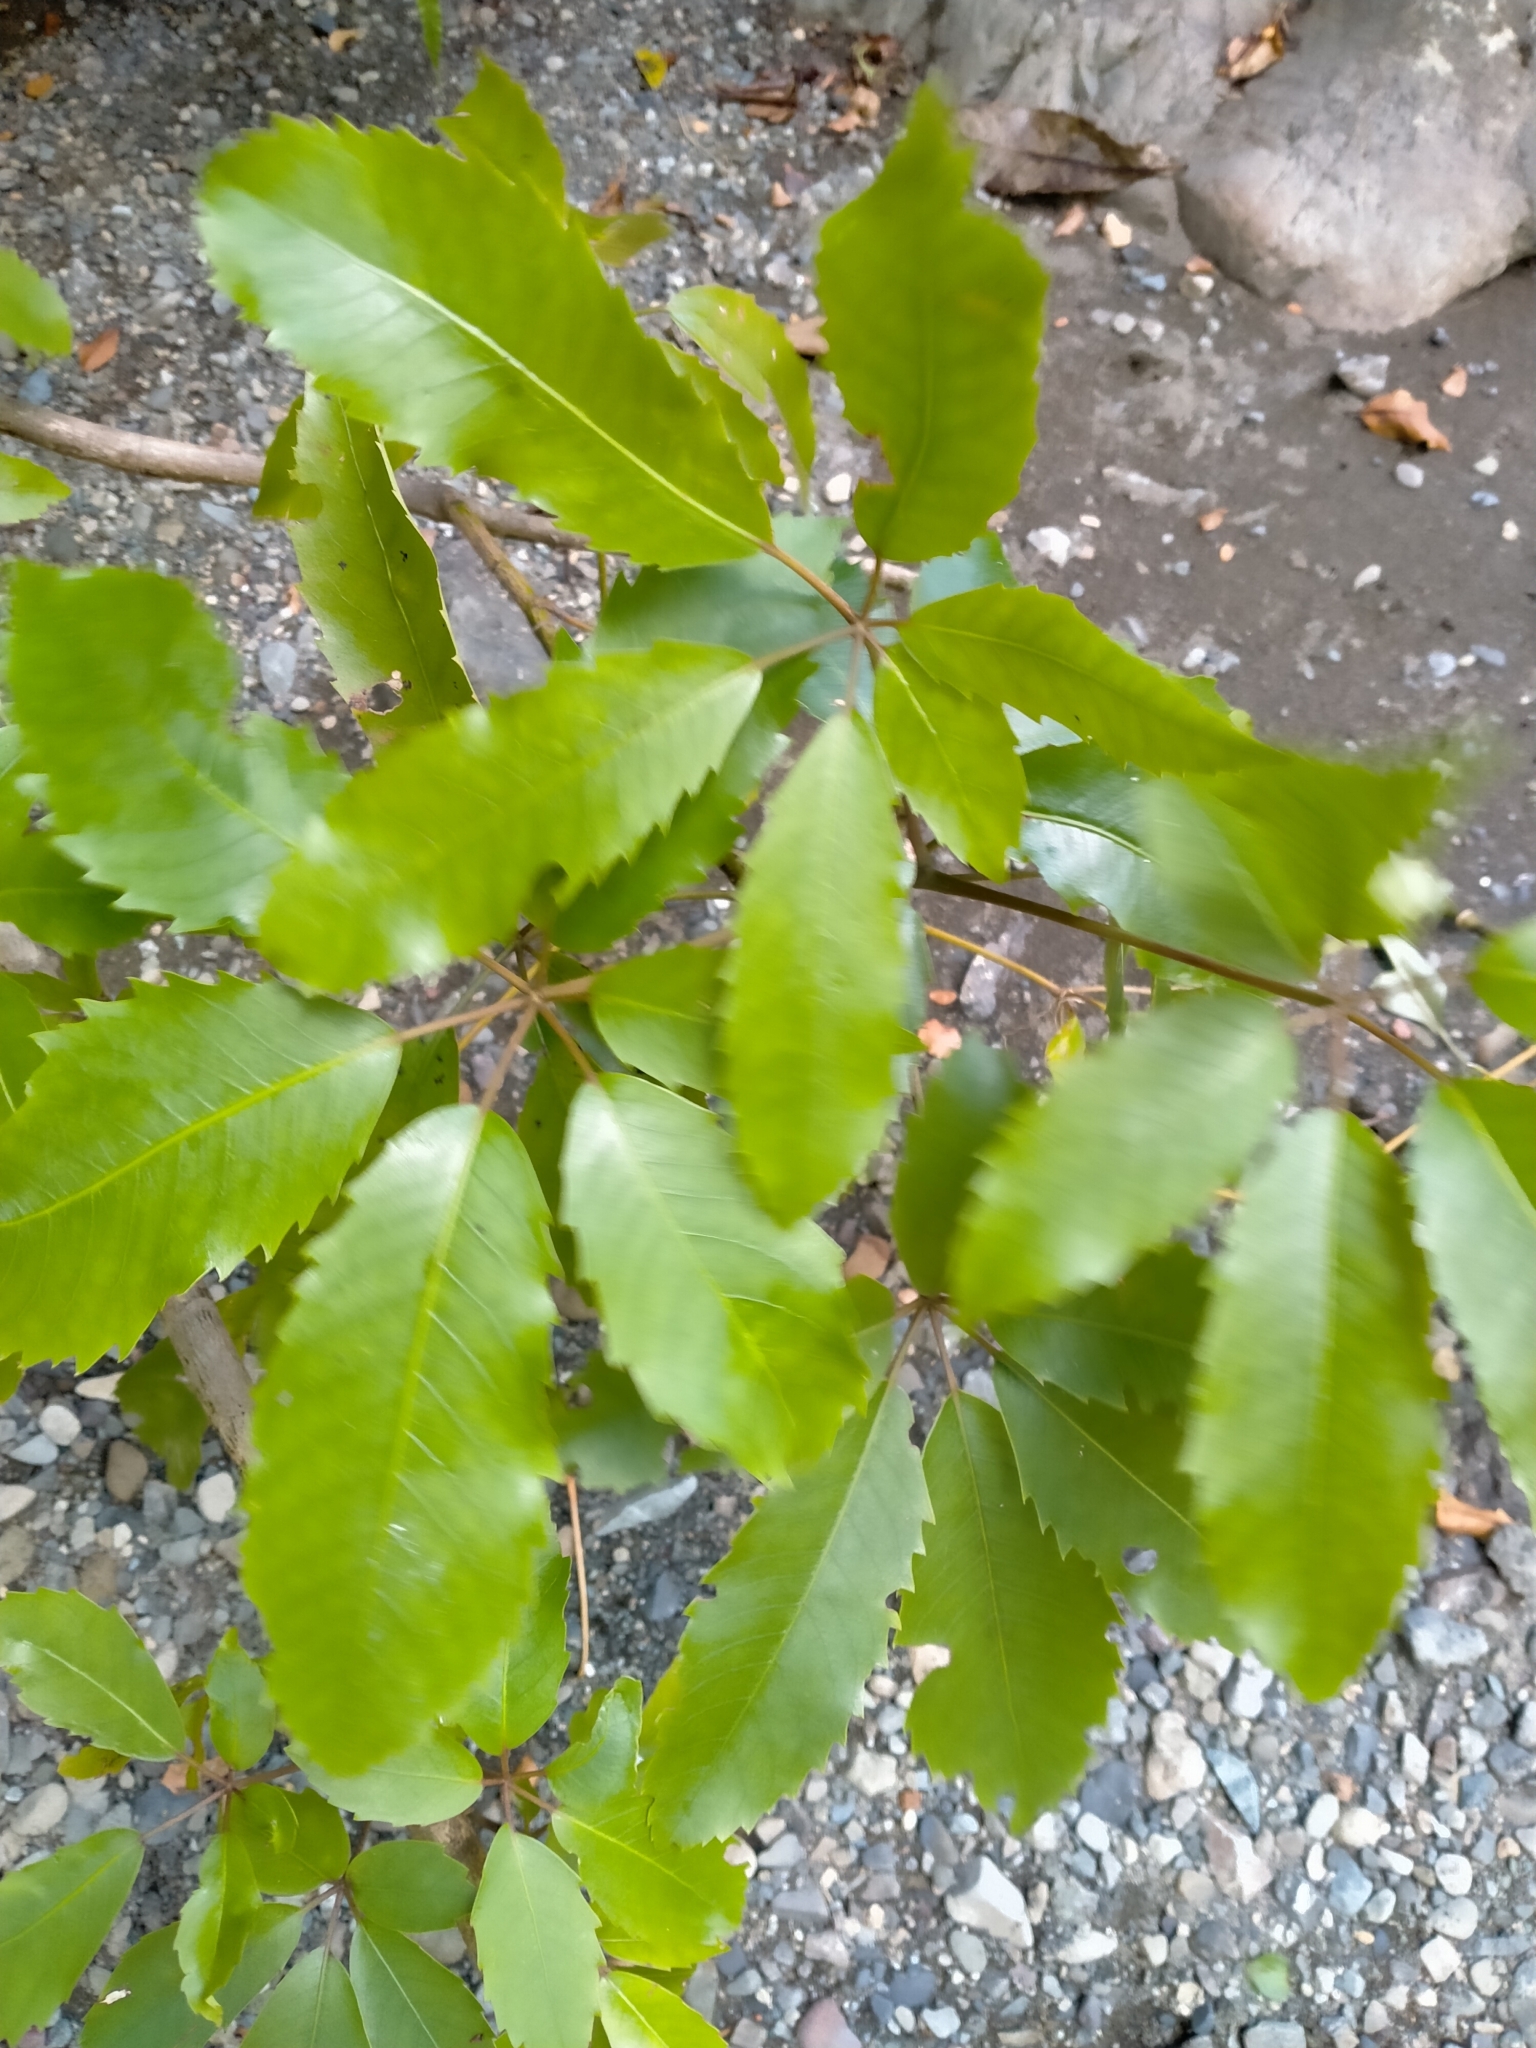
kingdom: Plantae
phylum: Tracheophyta
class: Magnoliopsida
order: Apiales
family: Araliaceae
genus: Neopanax
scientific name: Neopanax arboreus
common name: Five-fingers
